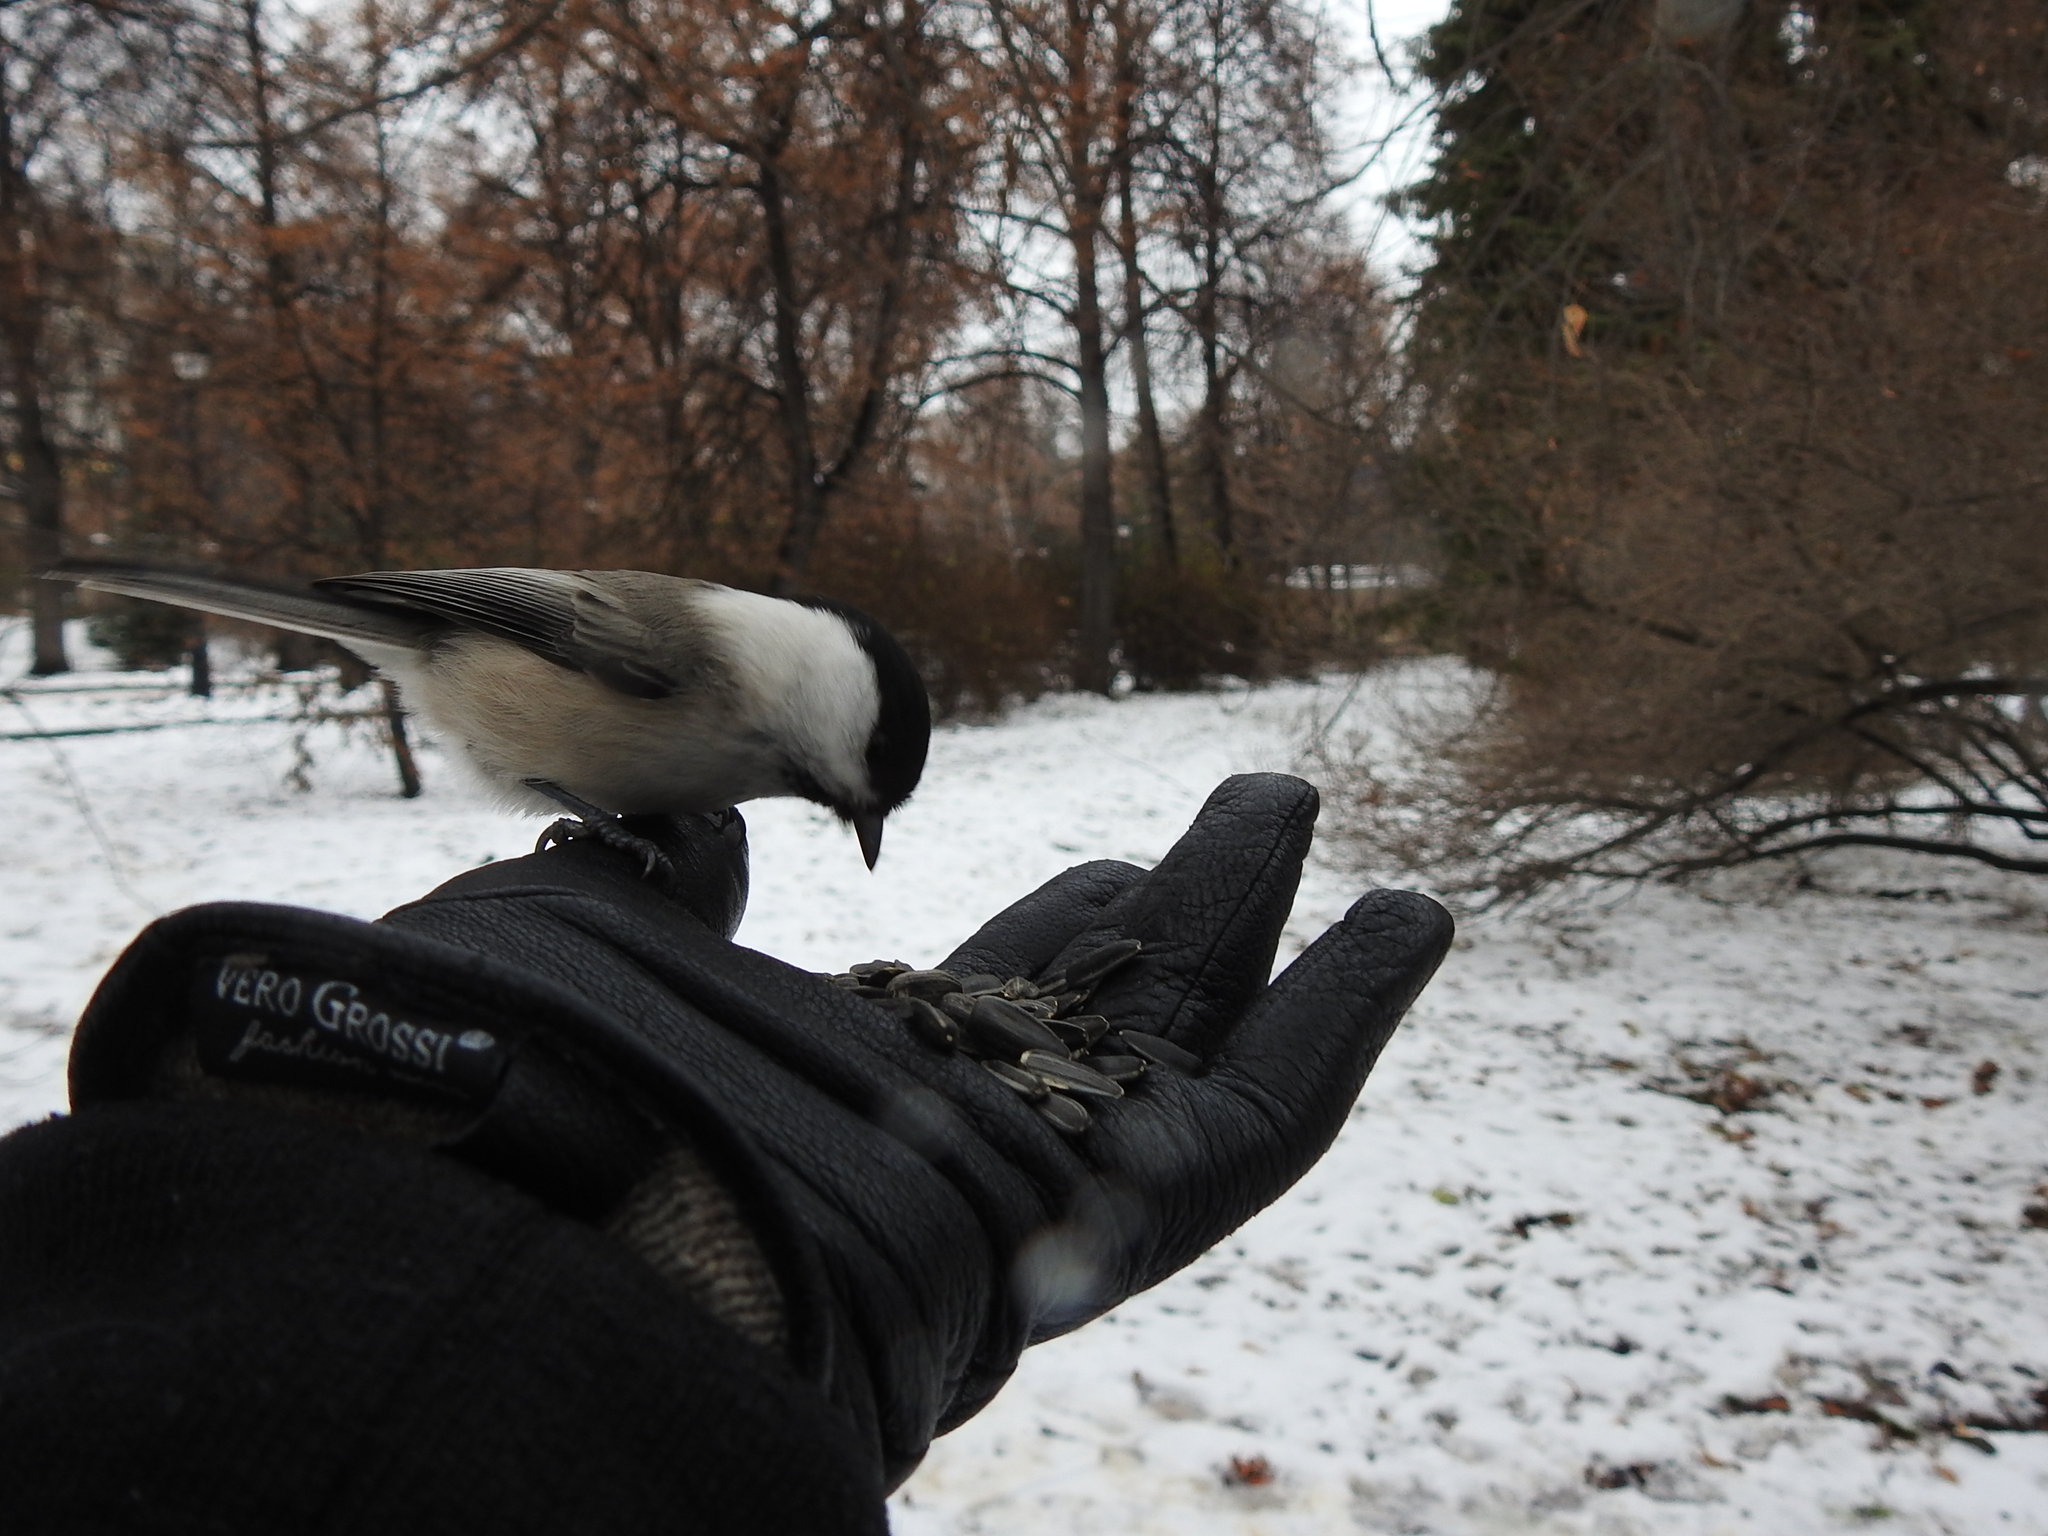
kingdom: Animalia
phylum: Chordata
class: Aves
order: Passeriformes
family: Paridae
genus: Poecile
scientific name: Poecile montanus
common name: Willow tit
